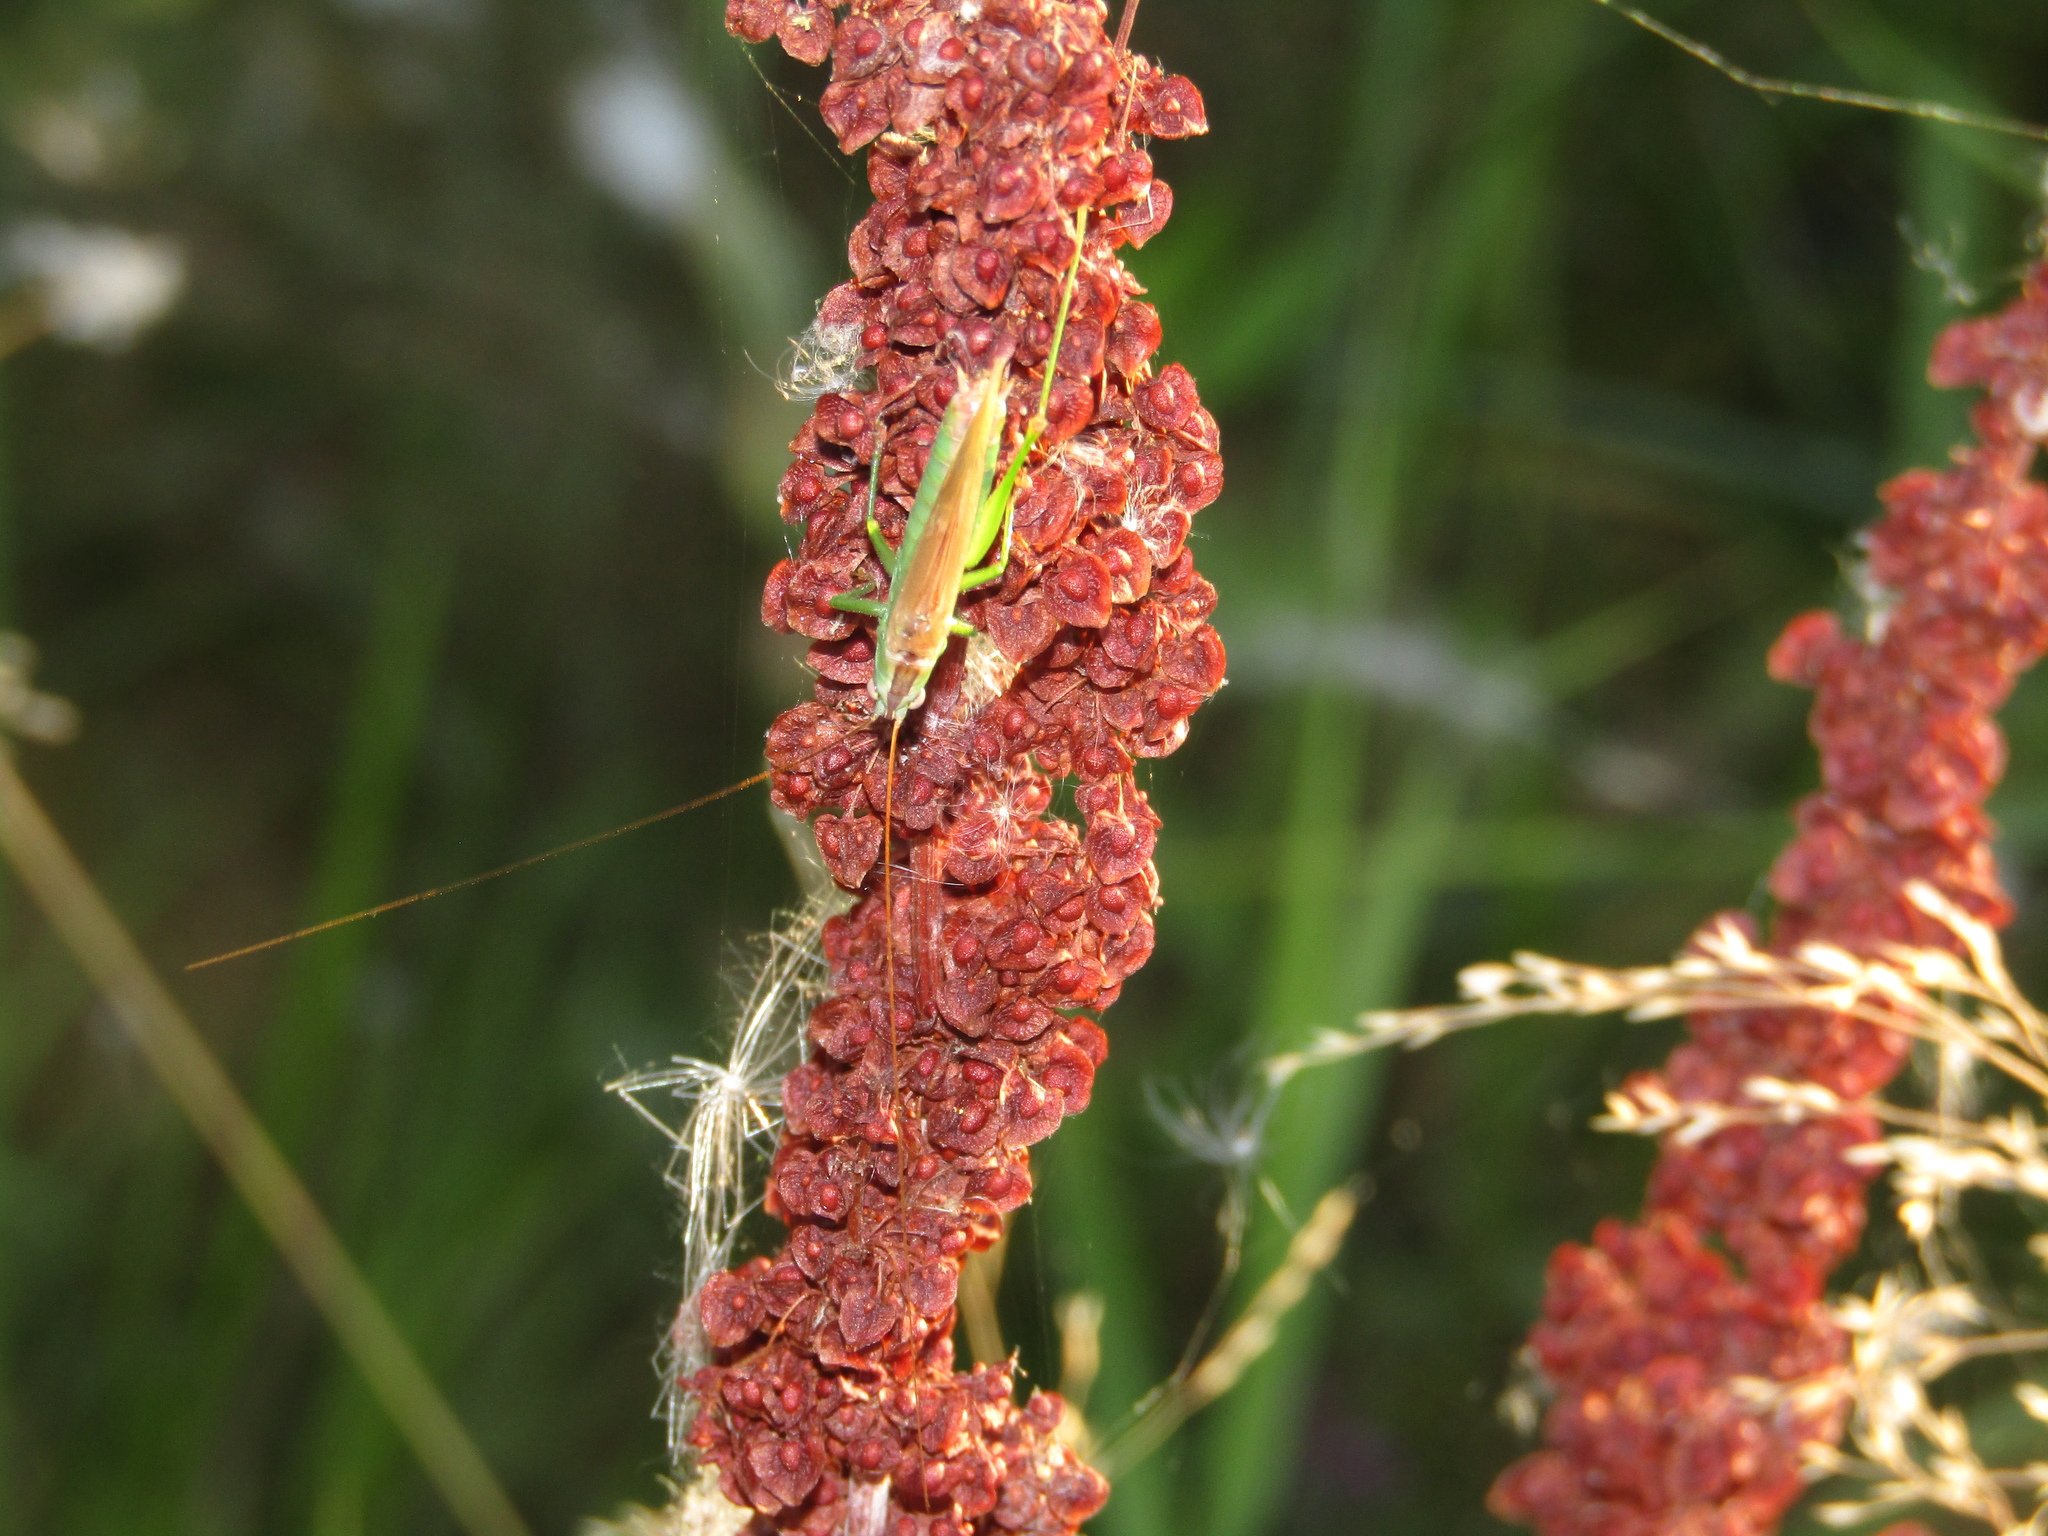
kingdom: Animalia
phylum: Arthropoda
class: Insecta
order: Orthoptera
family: Tettigoniidae
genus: Conocephalus
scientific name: Conocephalus fuscus
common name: Long-winged conehead
